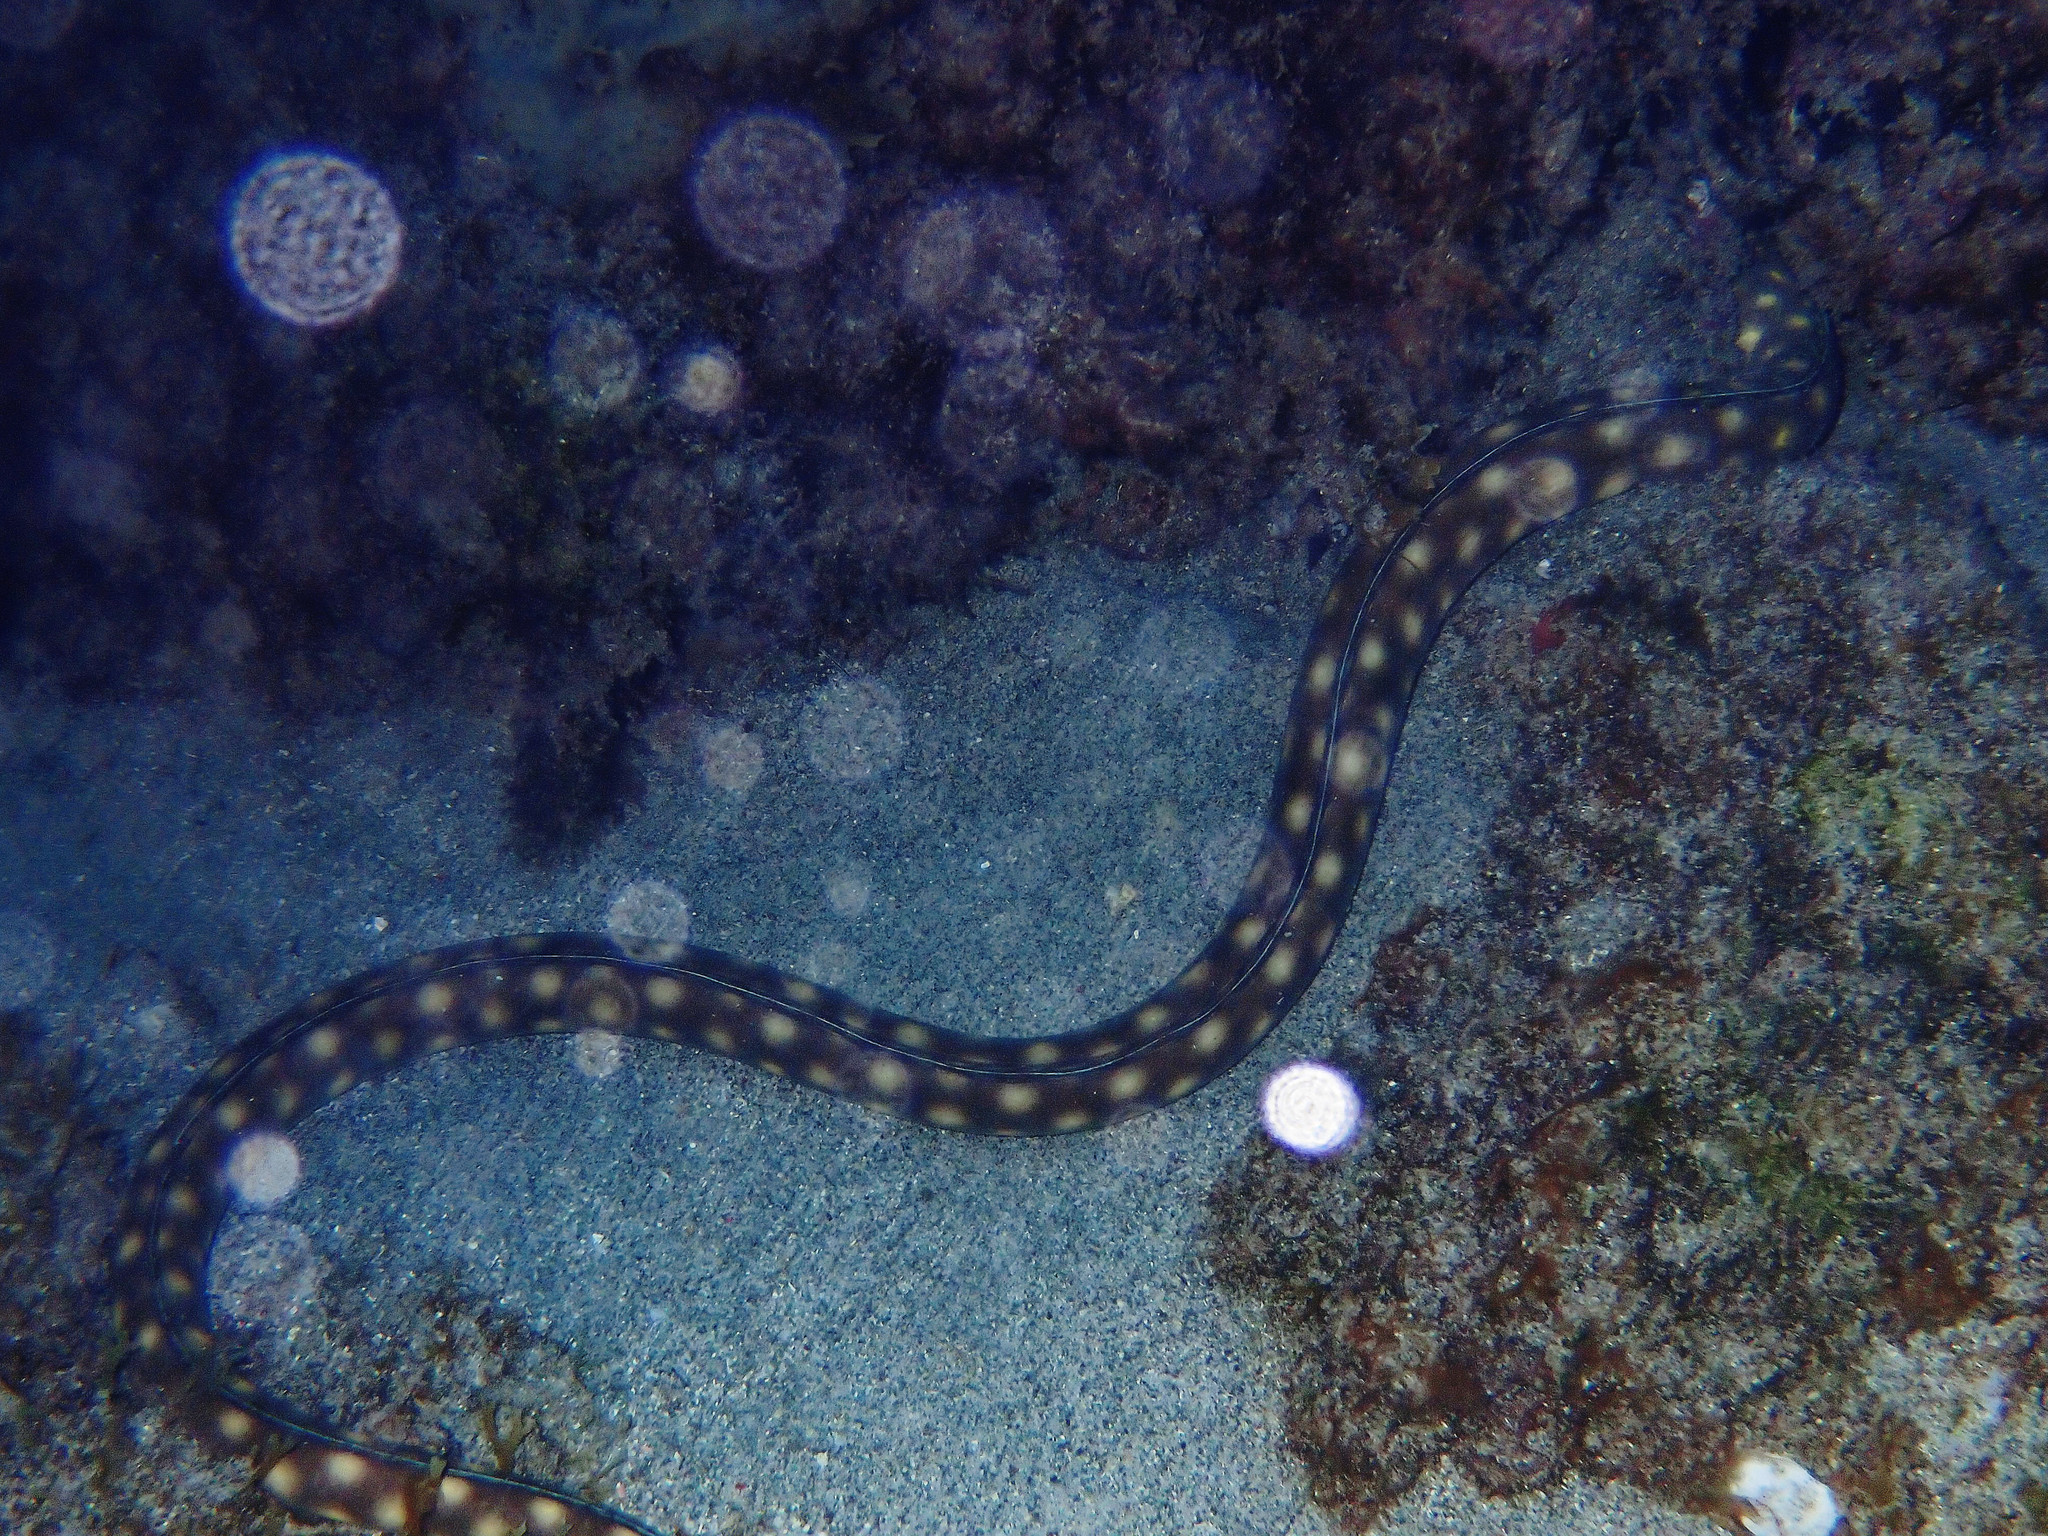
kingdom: Animalia
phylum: Chordata
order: Anguilliformes
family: Ophichthidae
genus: Myrichthys
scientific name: Myrichthys breviceps
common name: Sharptail eel
